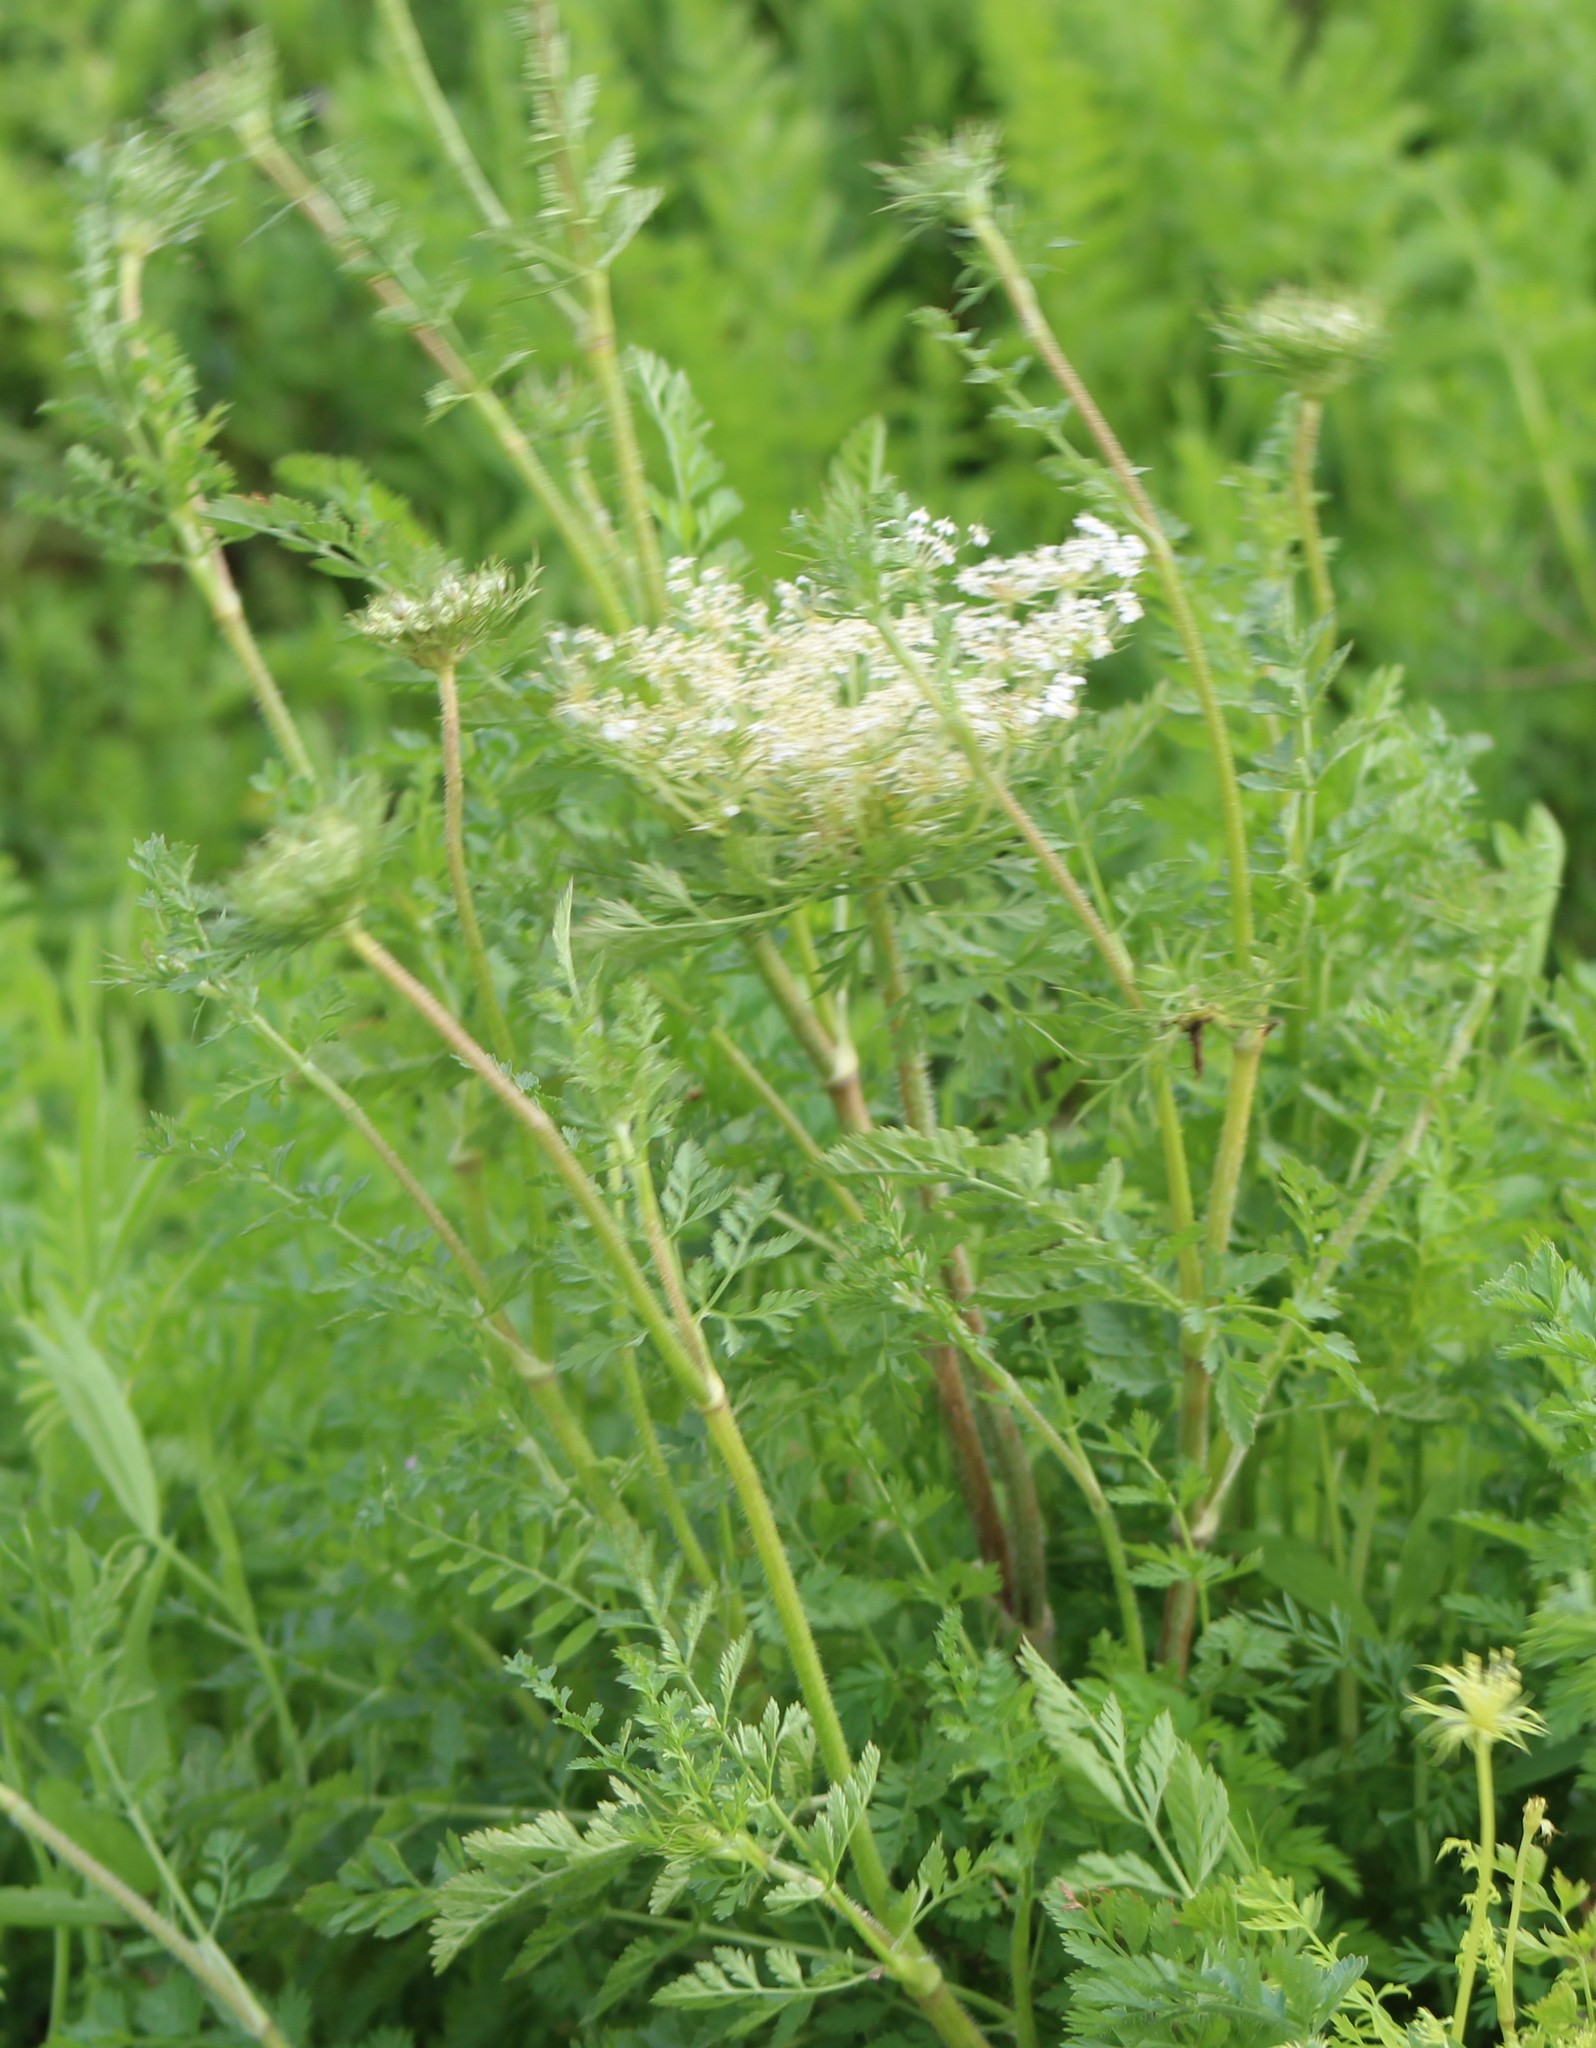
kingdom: Plantae
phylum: Tracheophyta
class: Magnoliopsida
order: Apiales
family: Apiaceae
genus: Daucus
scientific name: Daucus carota
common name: Wild carrot
